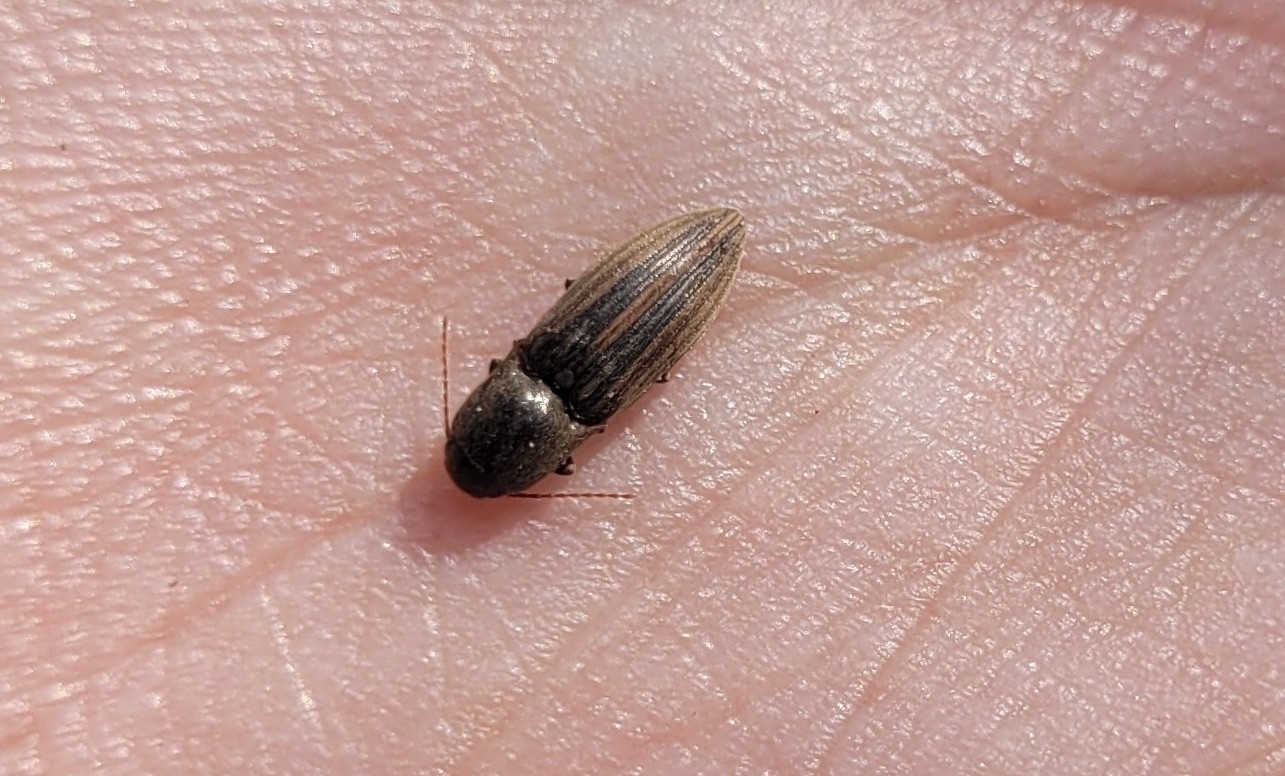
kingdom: Animalia
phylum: Arthropoda
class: Insecta
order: Coleoptera
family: Elateridae
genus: Agriotes
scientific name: Agriotes lineatus
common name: Lined click beetle
